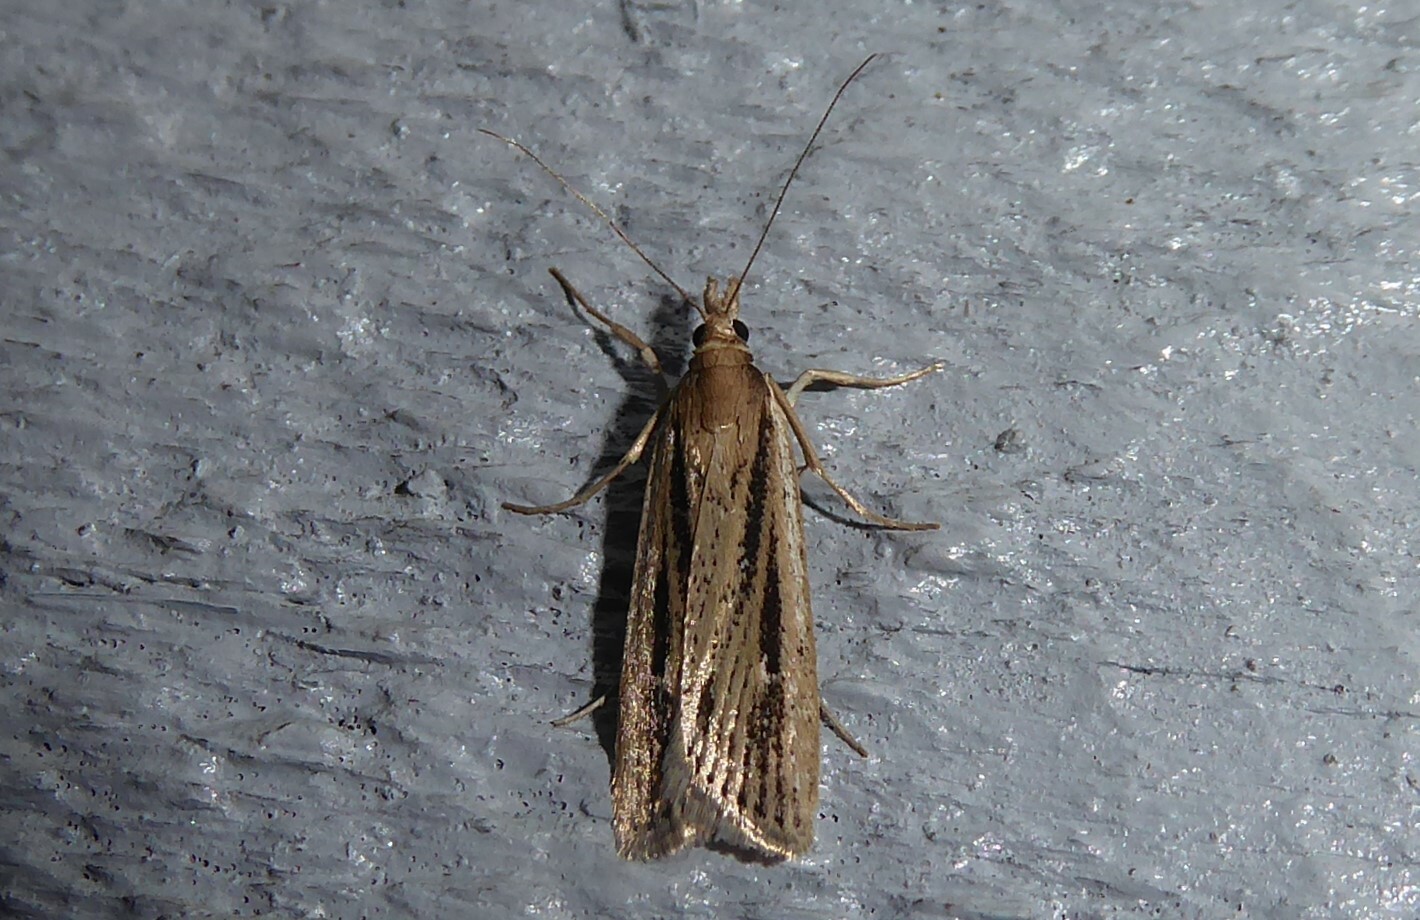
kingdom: Animalia
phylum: Arthropoda
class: Insecta
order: Lepidoptera
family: Crambidae
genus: Eudonia
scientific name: Eudonia sabulosella
